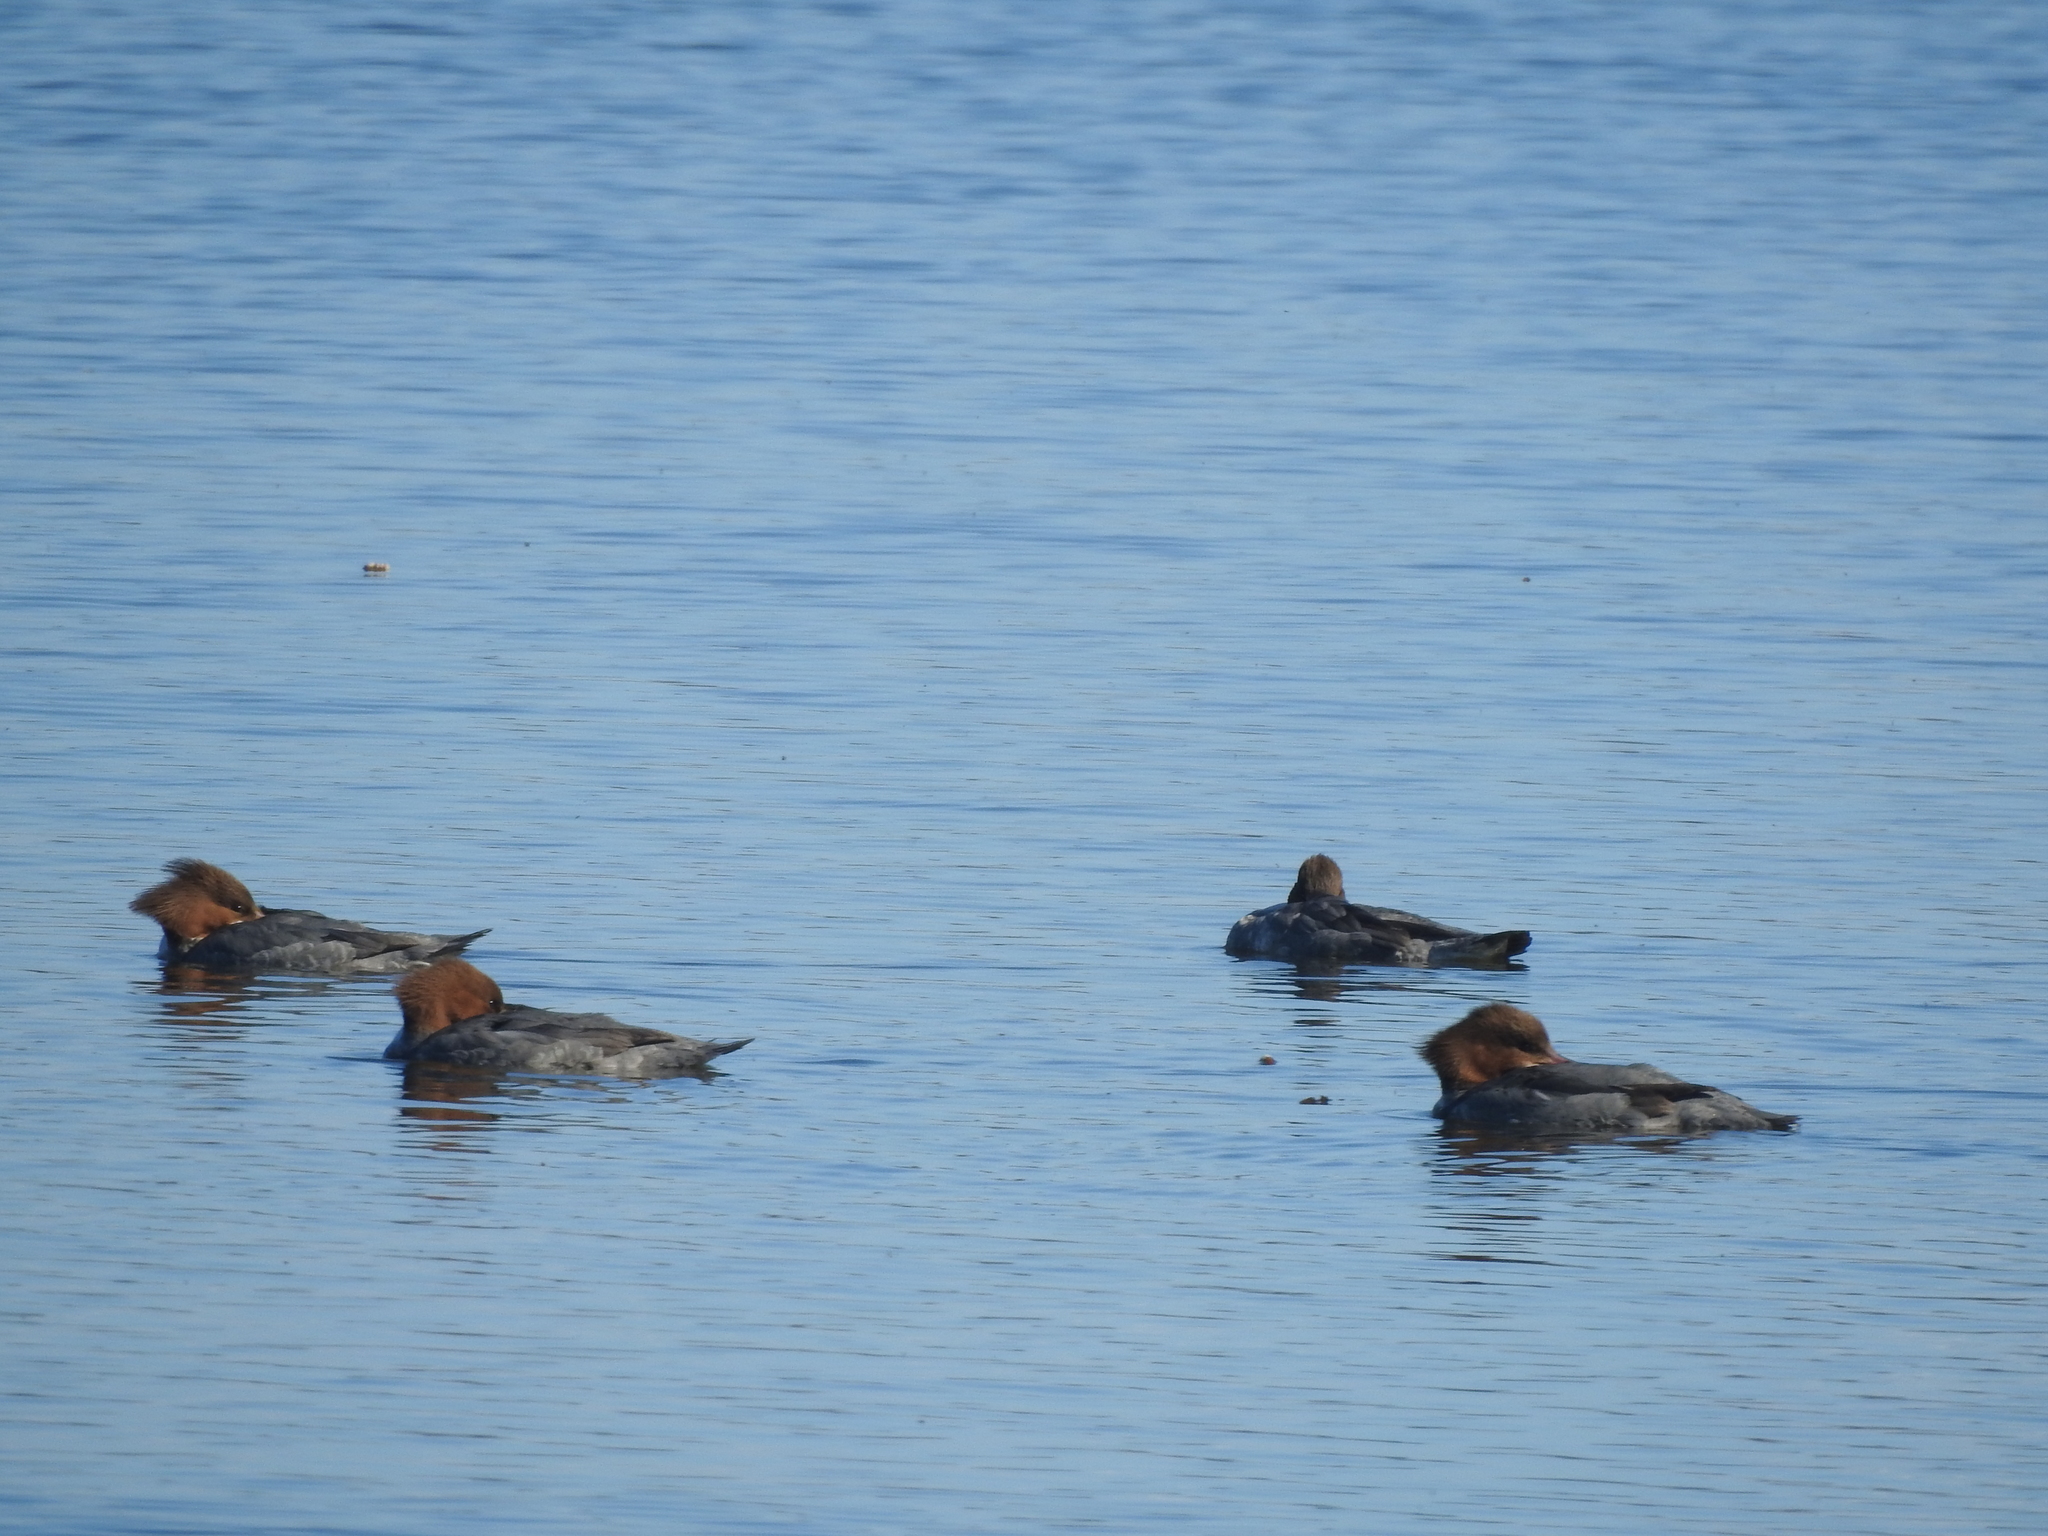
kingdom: Animalia
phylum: Chordata
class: Aves
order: Anseriformes
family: Anatidae
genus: Mergus
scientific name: Mergus merganser
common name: Common merganser
